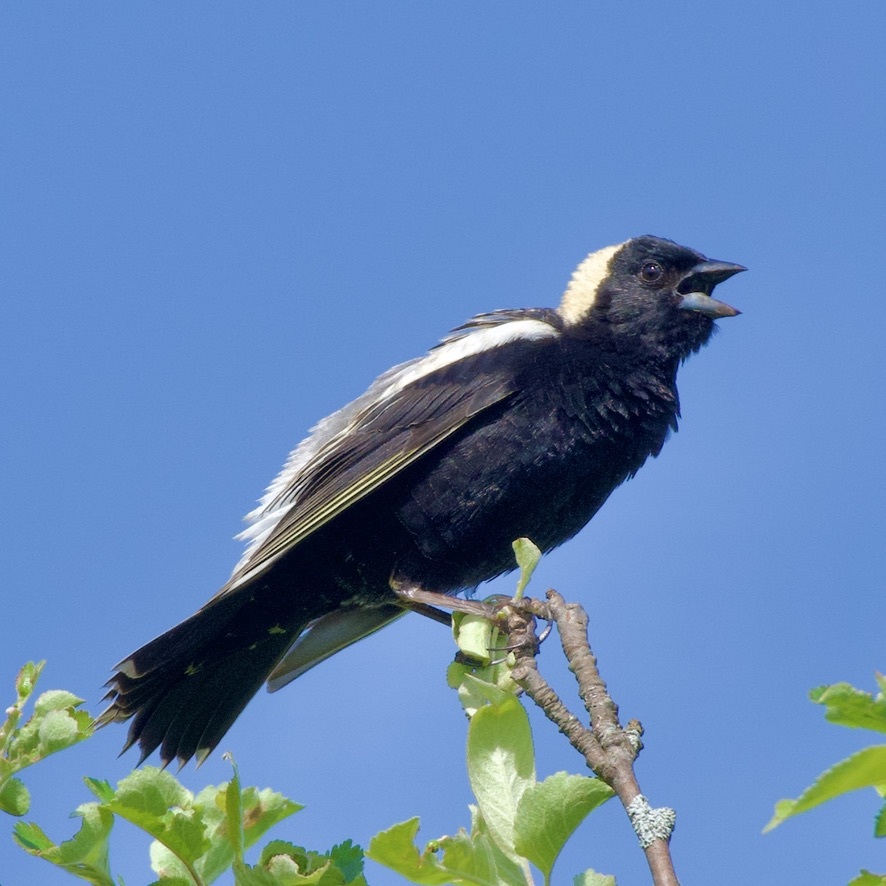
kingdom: Animalia
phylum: Chordata
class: Aves
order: Passeriformes
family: Icteridae
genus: Dolichonyx
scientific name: Dolichonyx oryzivorus
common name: Bobolink
